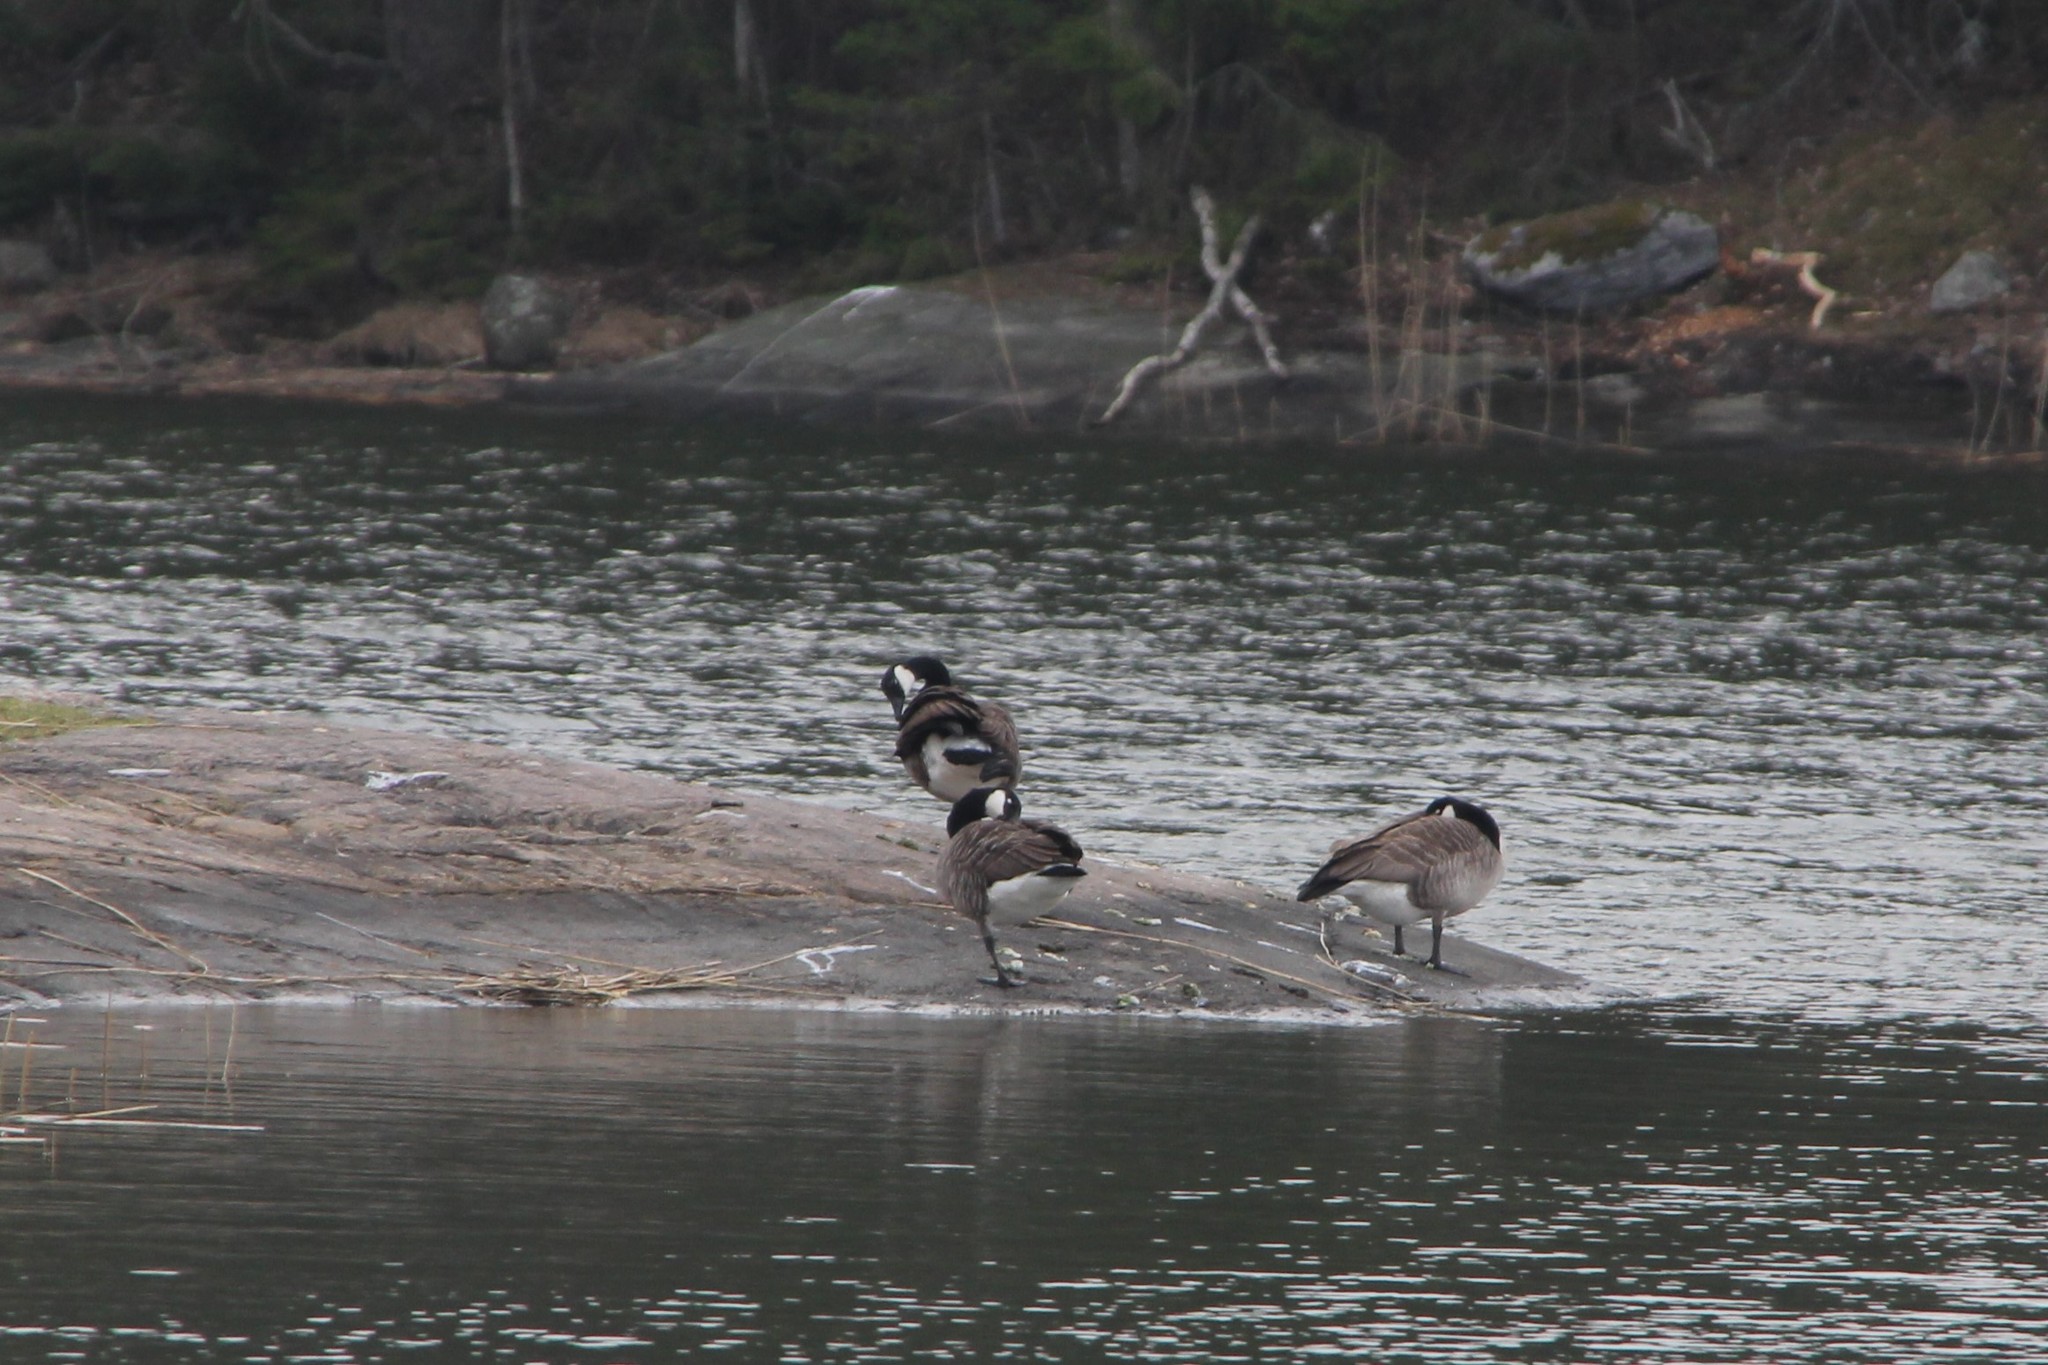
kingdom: Animalia
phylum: Chordata
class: Aves
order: Anseriformes
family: Anatidae
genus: Branta
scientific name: Branta canadensis
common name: Canada goose
